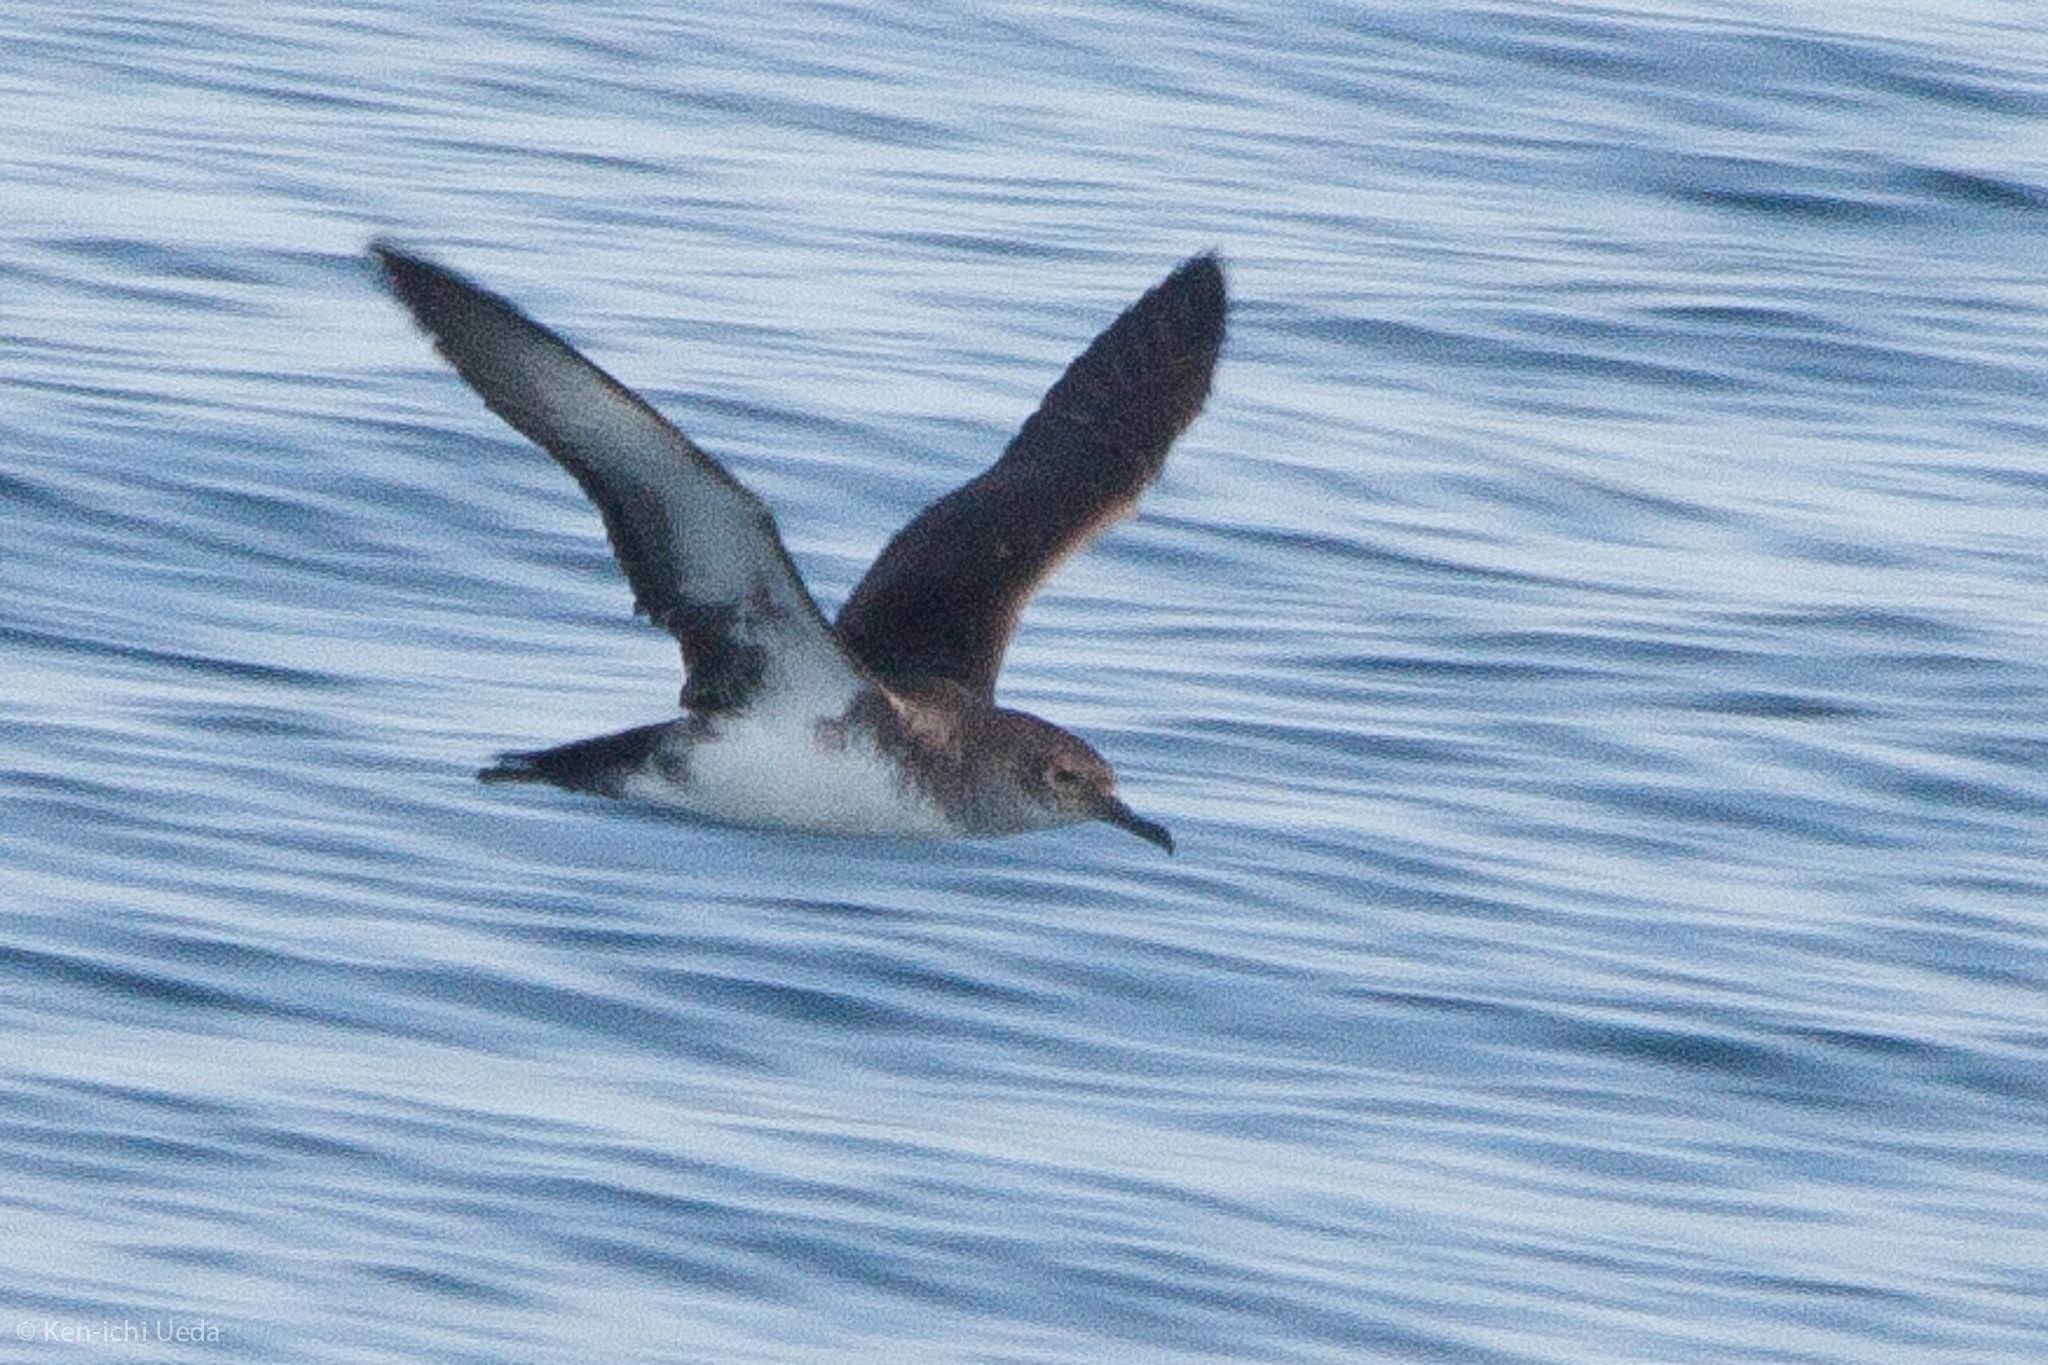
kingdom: Animalia
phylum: Chordata
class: Aves
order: Procellariiformes
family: Procellariidae
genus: Puffinus
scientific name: Puffinus opisthomelas
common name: Black-vented shearwater
